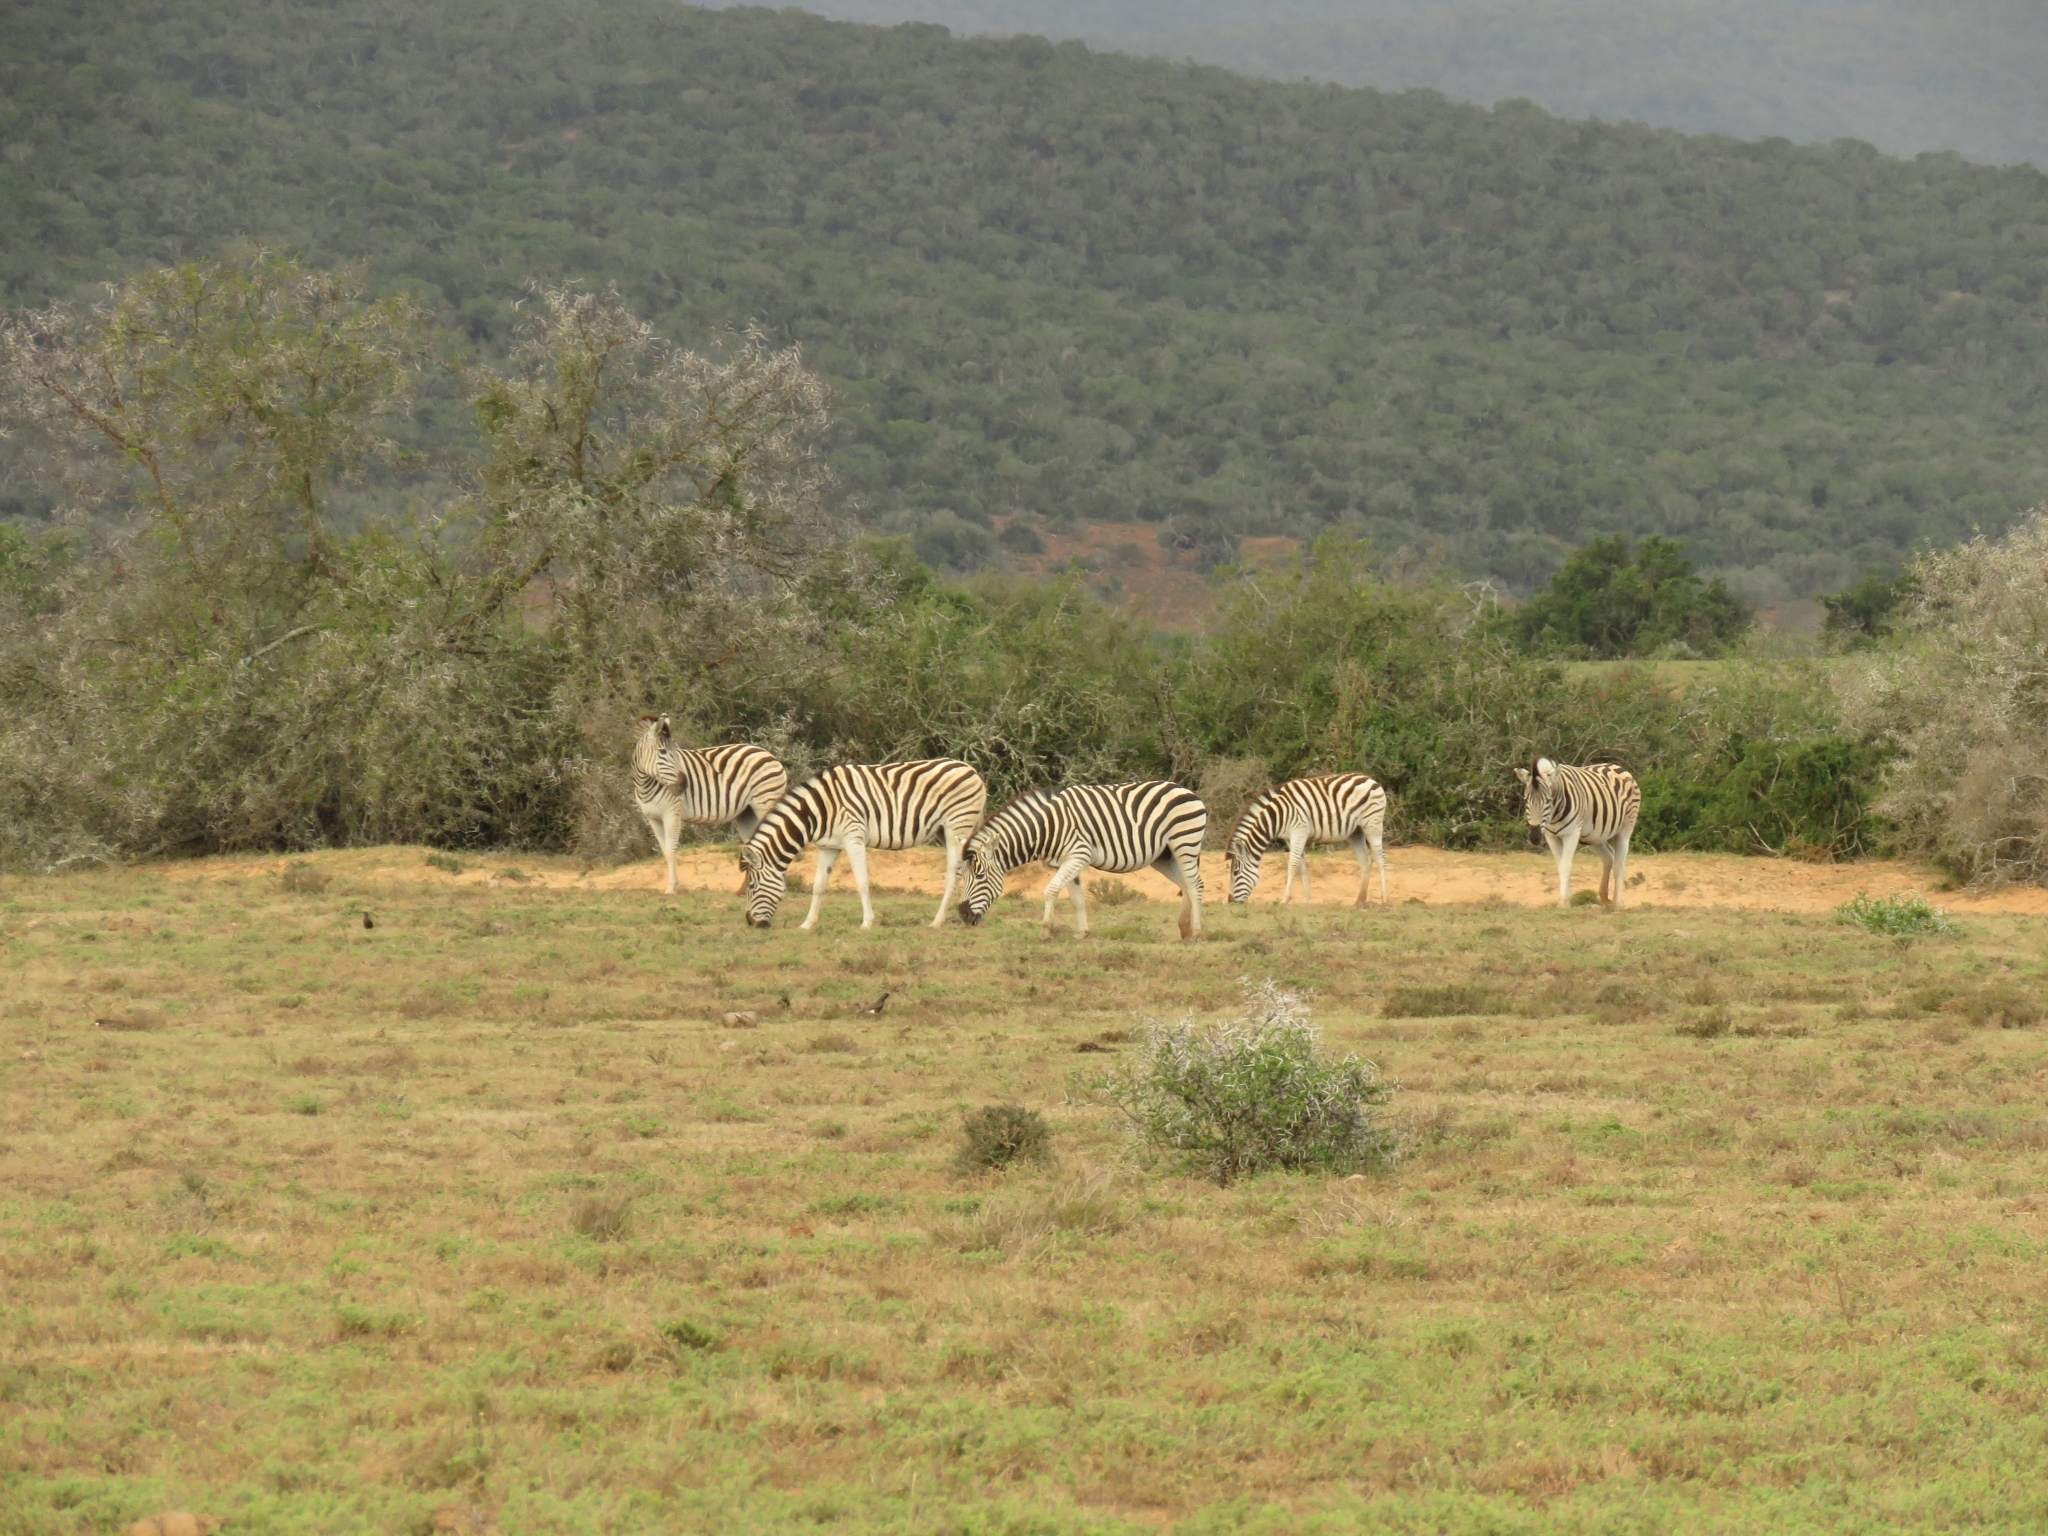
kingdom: Animalia
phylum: Chordata
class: Mammalia
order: Perissodactyla
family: Equidae
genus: Equus
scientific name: Equus quagga
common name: Plains zebra
